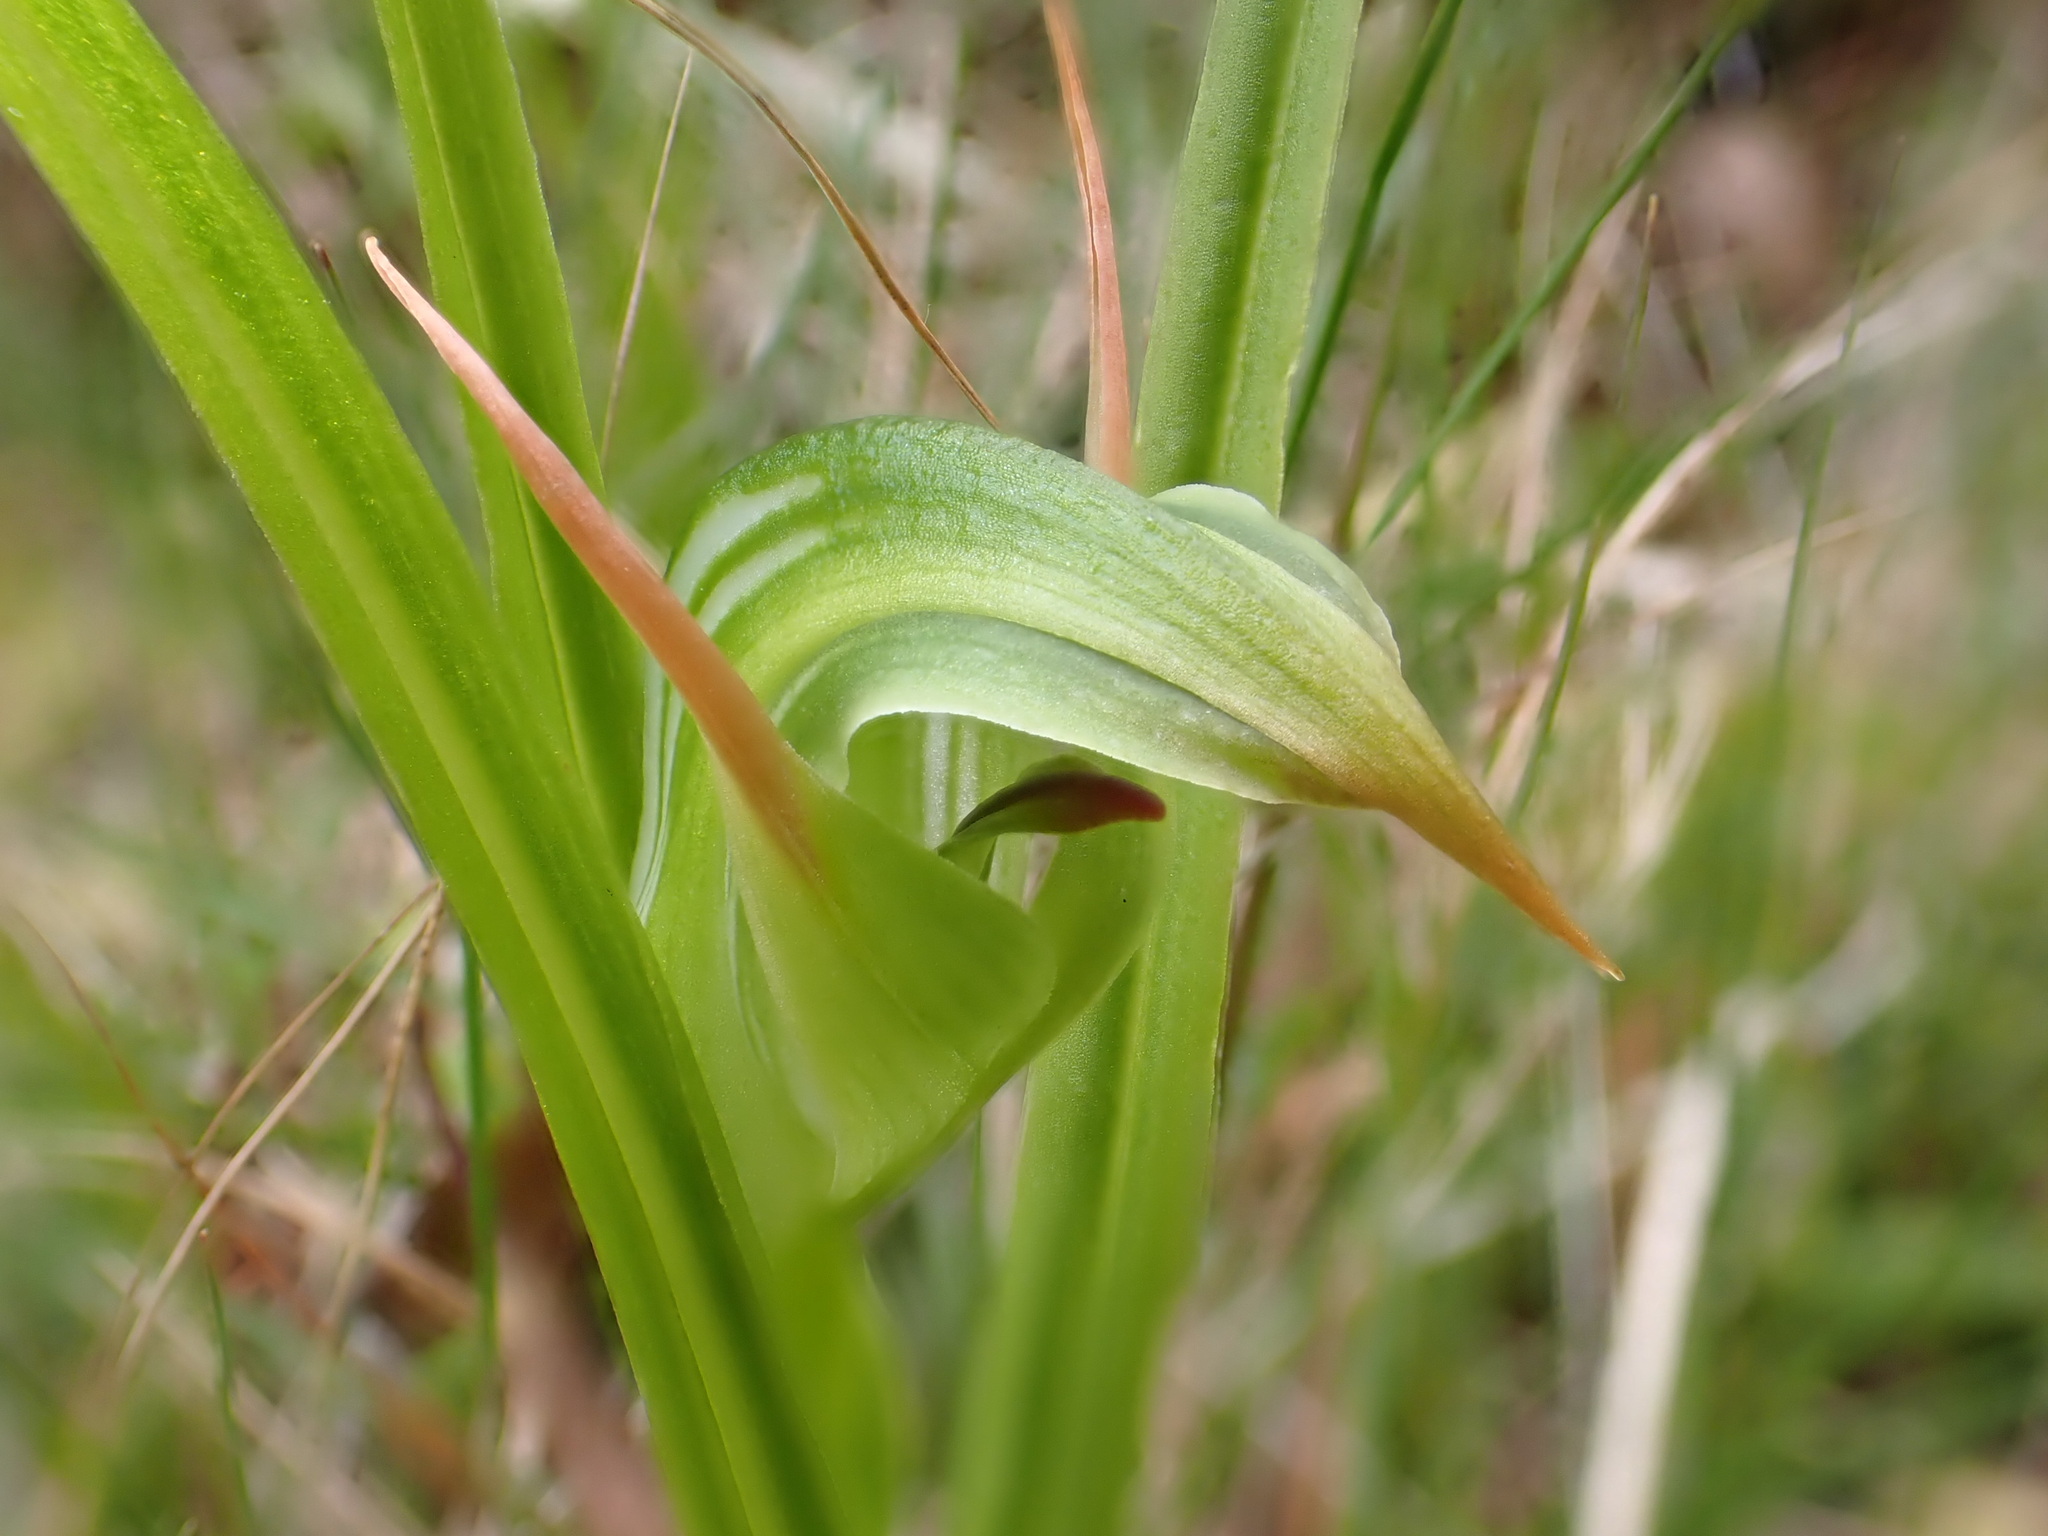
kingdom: Plantae
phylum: Tracheophyta
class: Liliopsida
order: Asparagales
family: Orchidaceae
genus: Pterostylis
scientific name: Pterostylis montana
